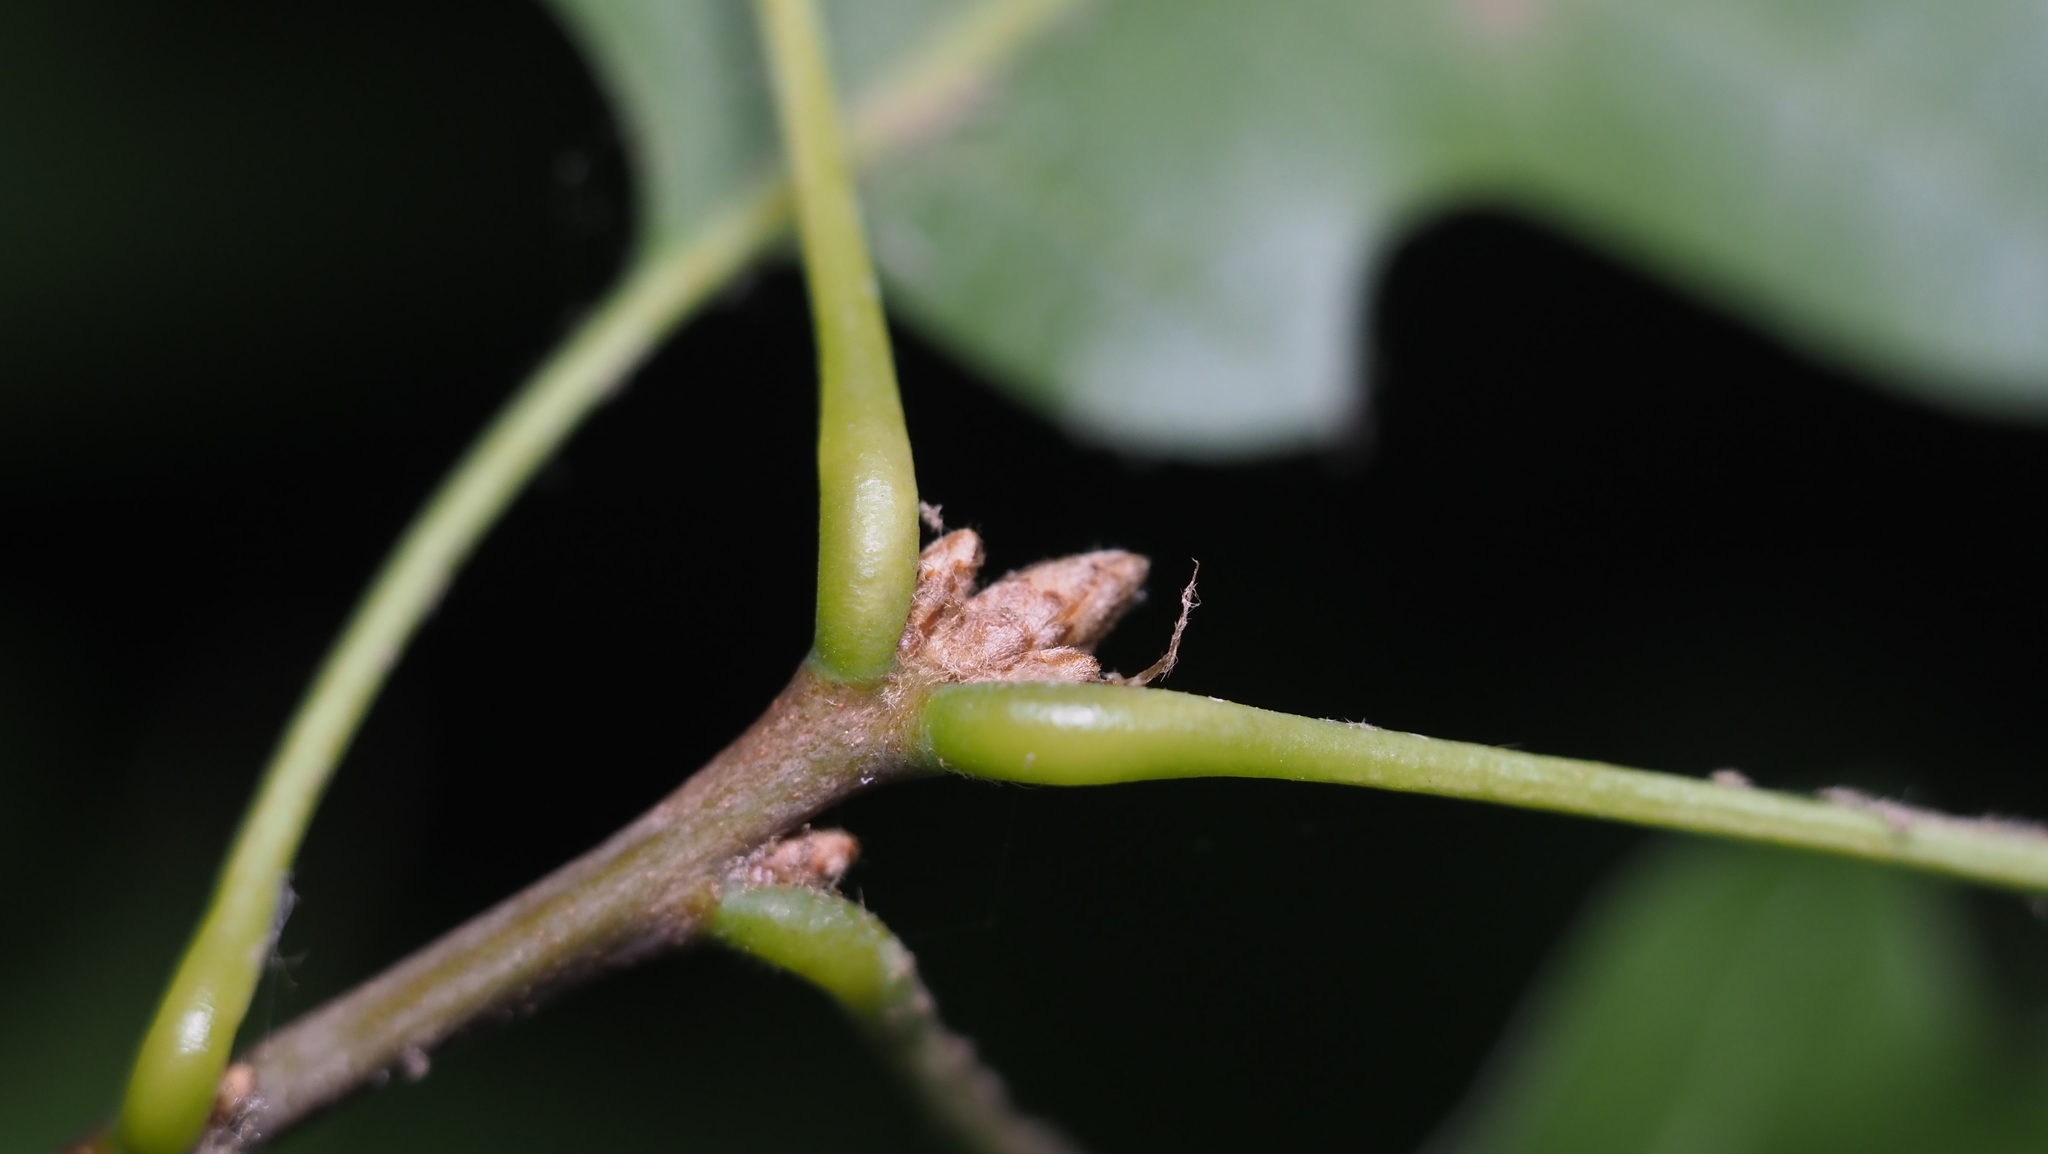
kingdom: Plantae
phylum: Tracheophyta
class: Magnoliopsida
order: Fagales
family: Fagaceae
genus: Quercus
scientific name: Quercus velutina
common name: Black oak
